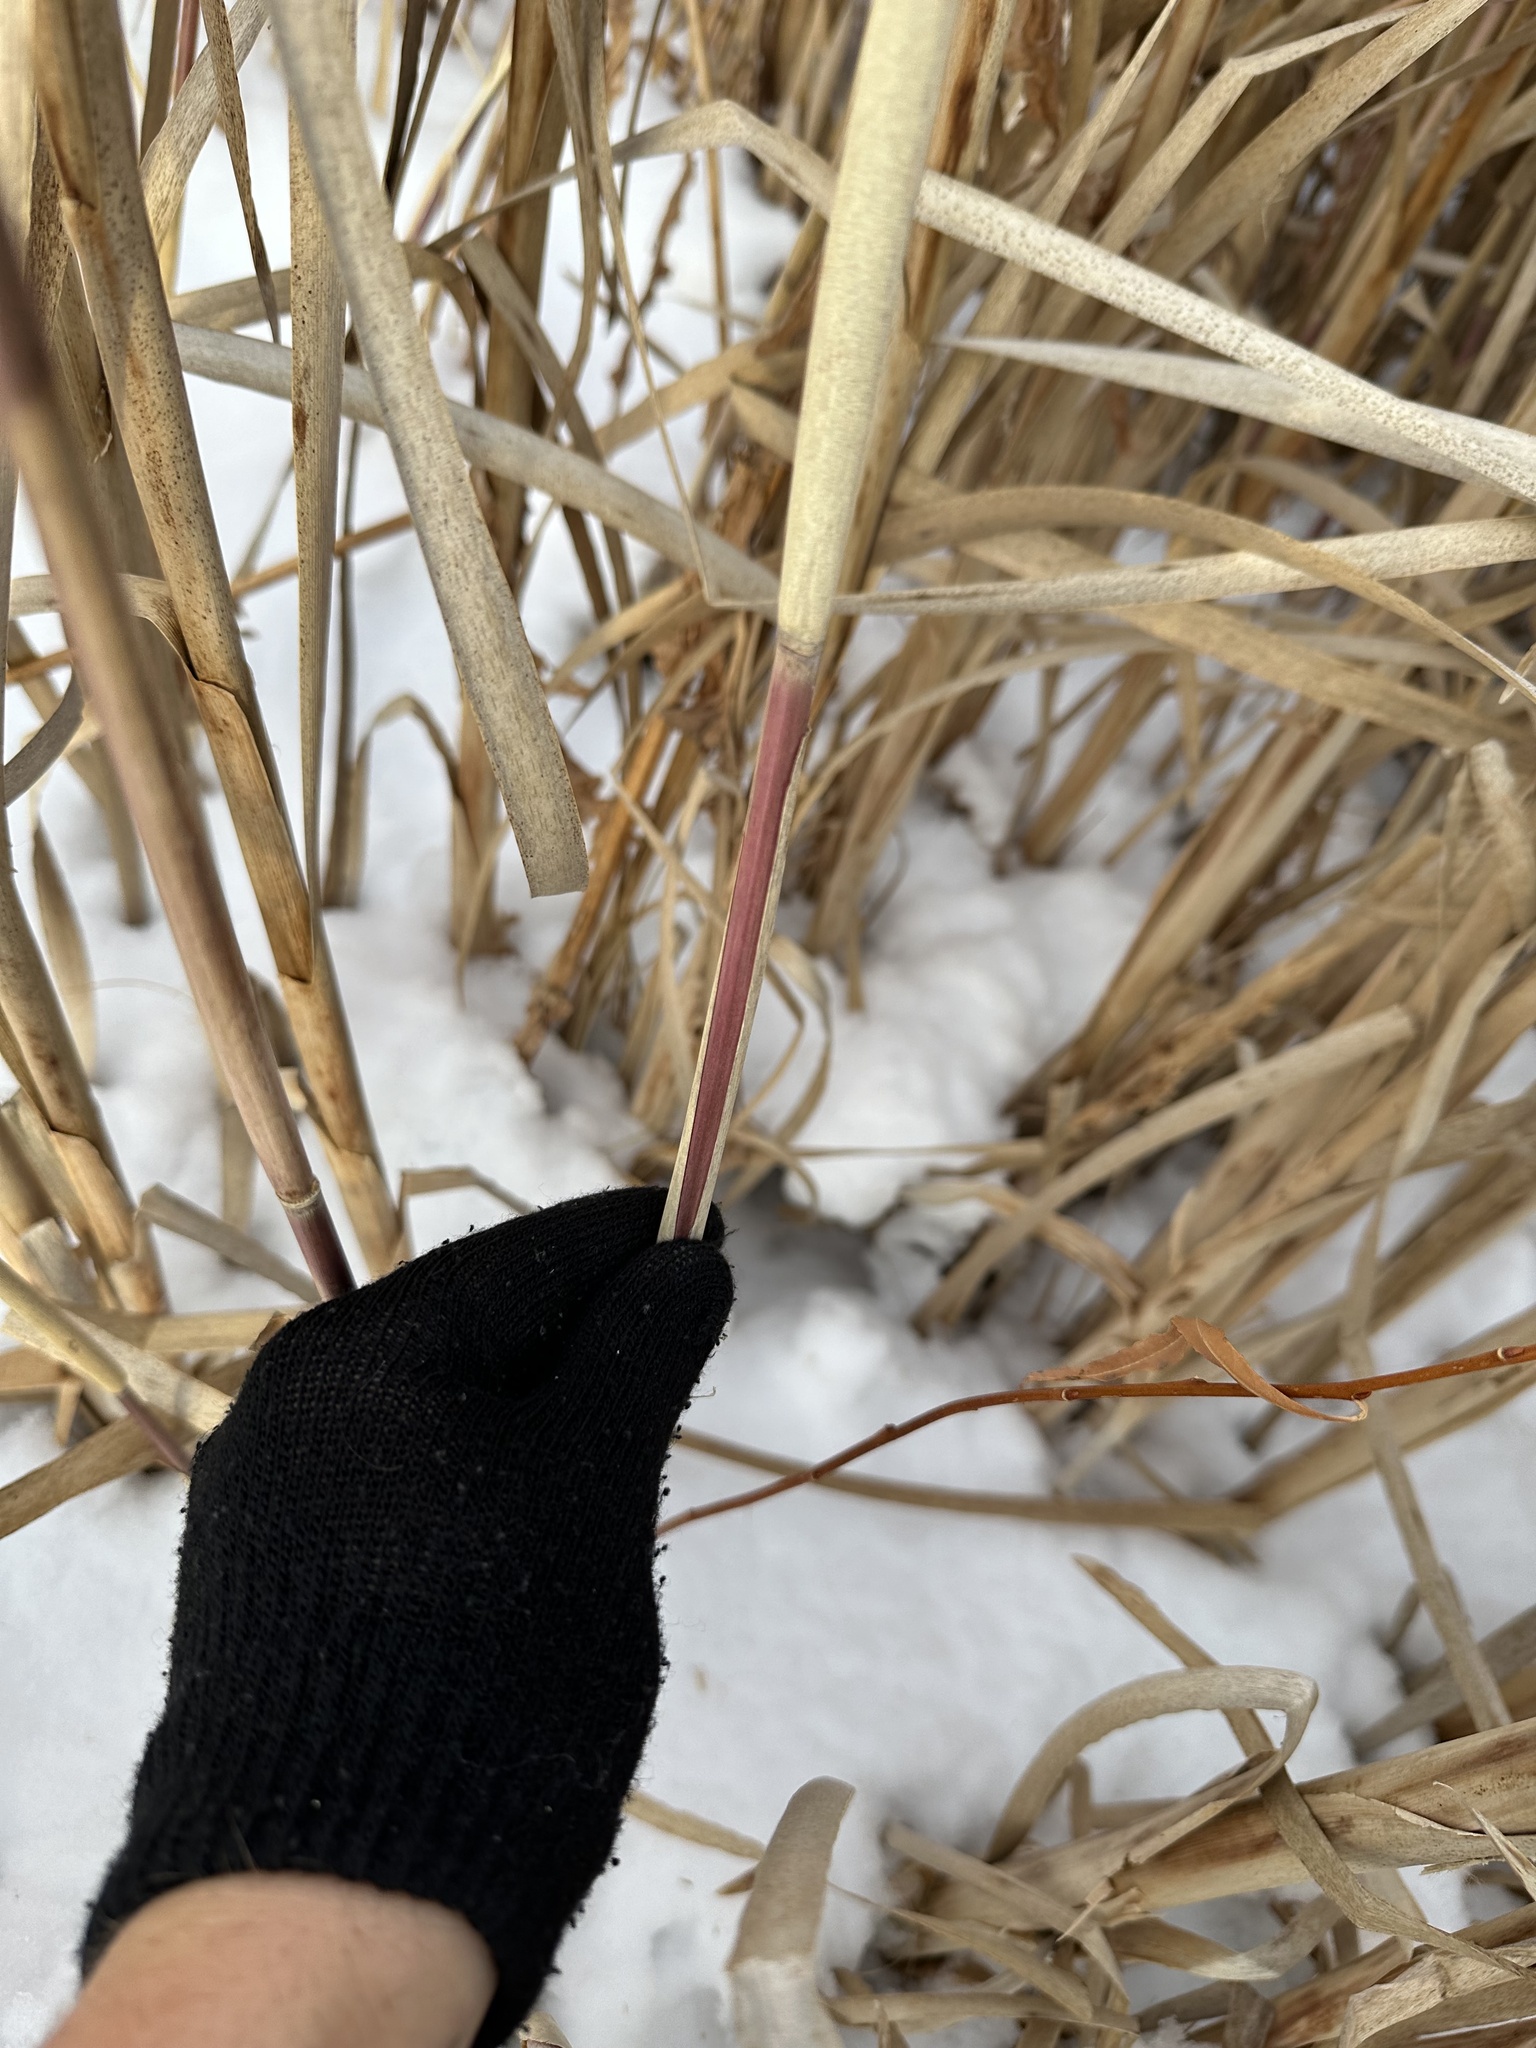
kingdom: Plantae
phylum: Tracheophyta
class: Liliopsida
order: Poales
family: Poaceae
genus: Phragmites
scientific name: Phragmites australis
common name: Common reed
